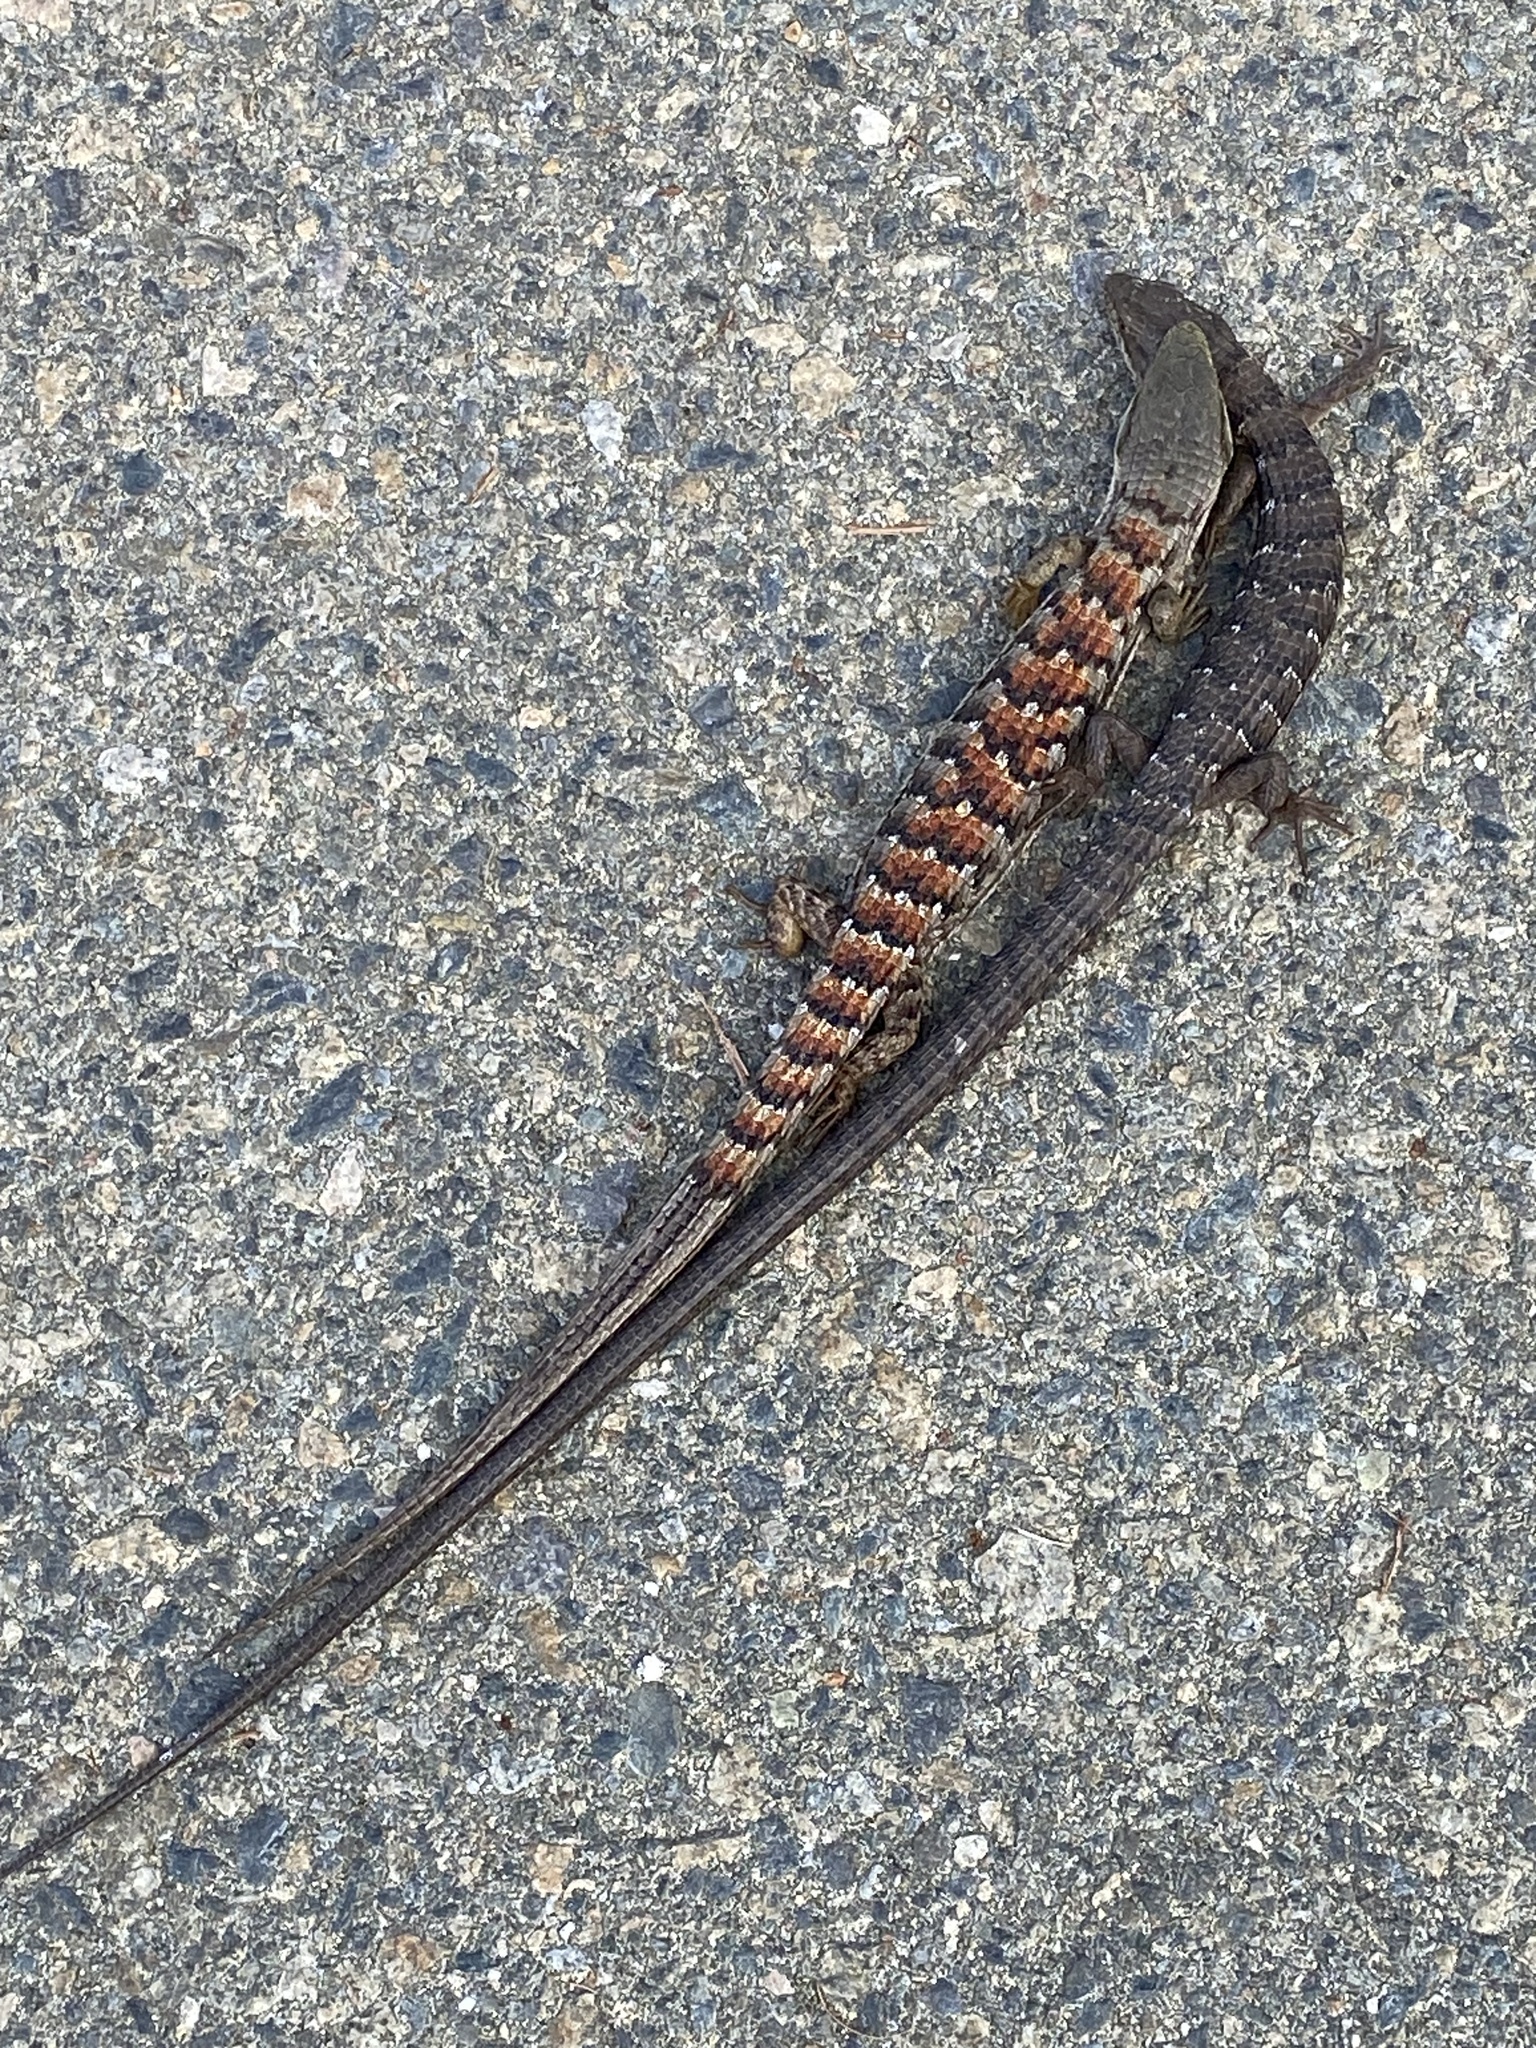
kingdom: Animalia
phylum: Chordata
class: Squamata
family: Anguidae
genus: Elgaria
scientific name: Elgaria multicarinata
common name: Southern alligator lizard
